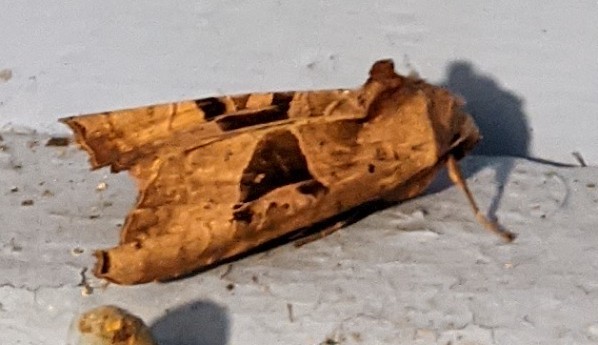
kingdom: Animalia
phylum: Arthropoda
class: Insecta
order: Lepidoptera
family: Noctuidae
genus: Phlogophora
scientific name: Phlogophora periculosa
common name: Brown angle shades
